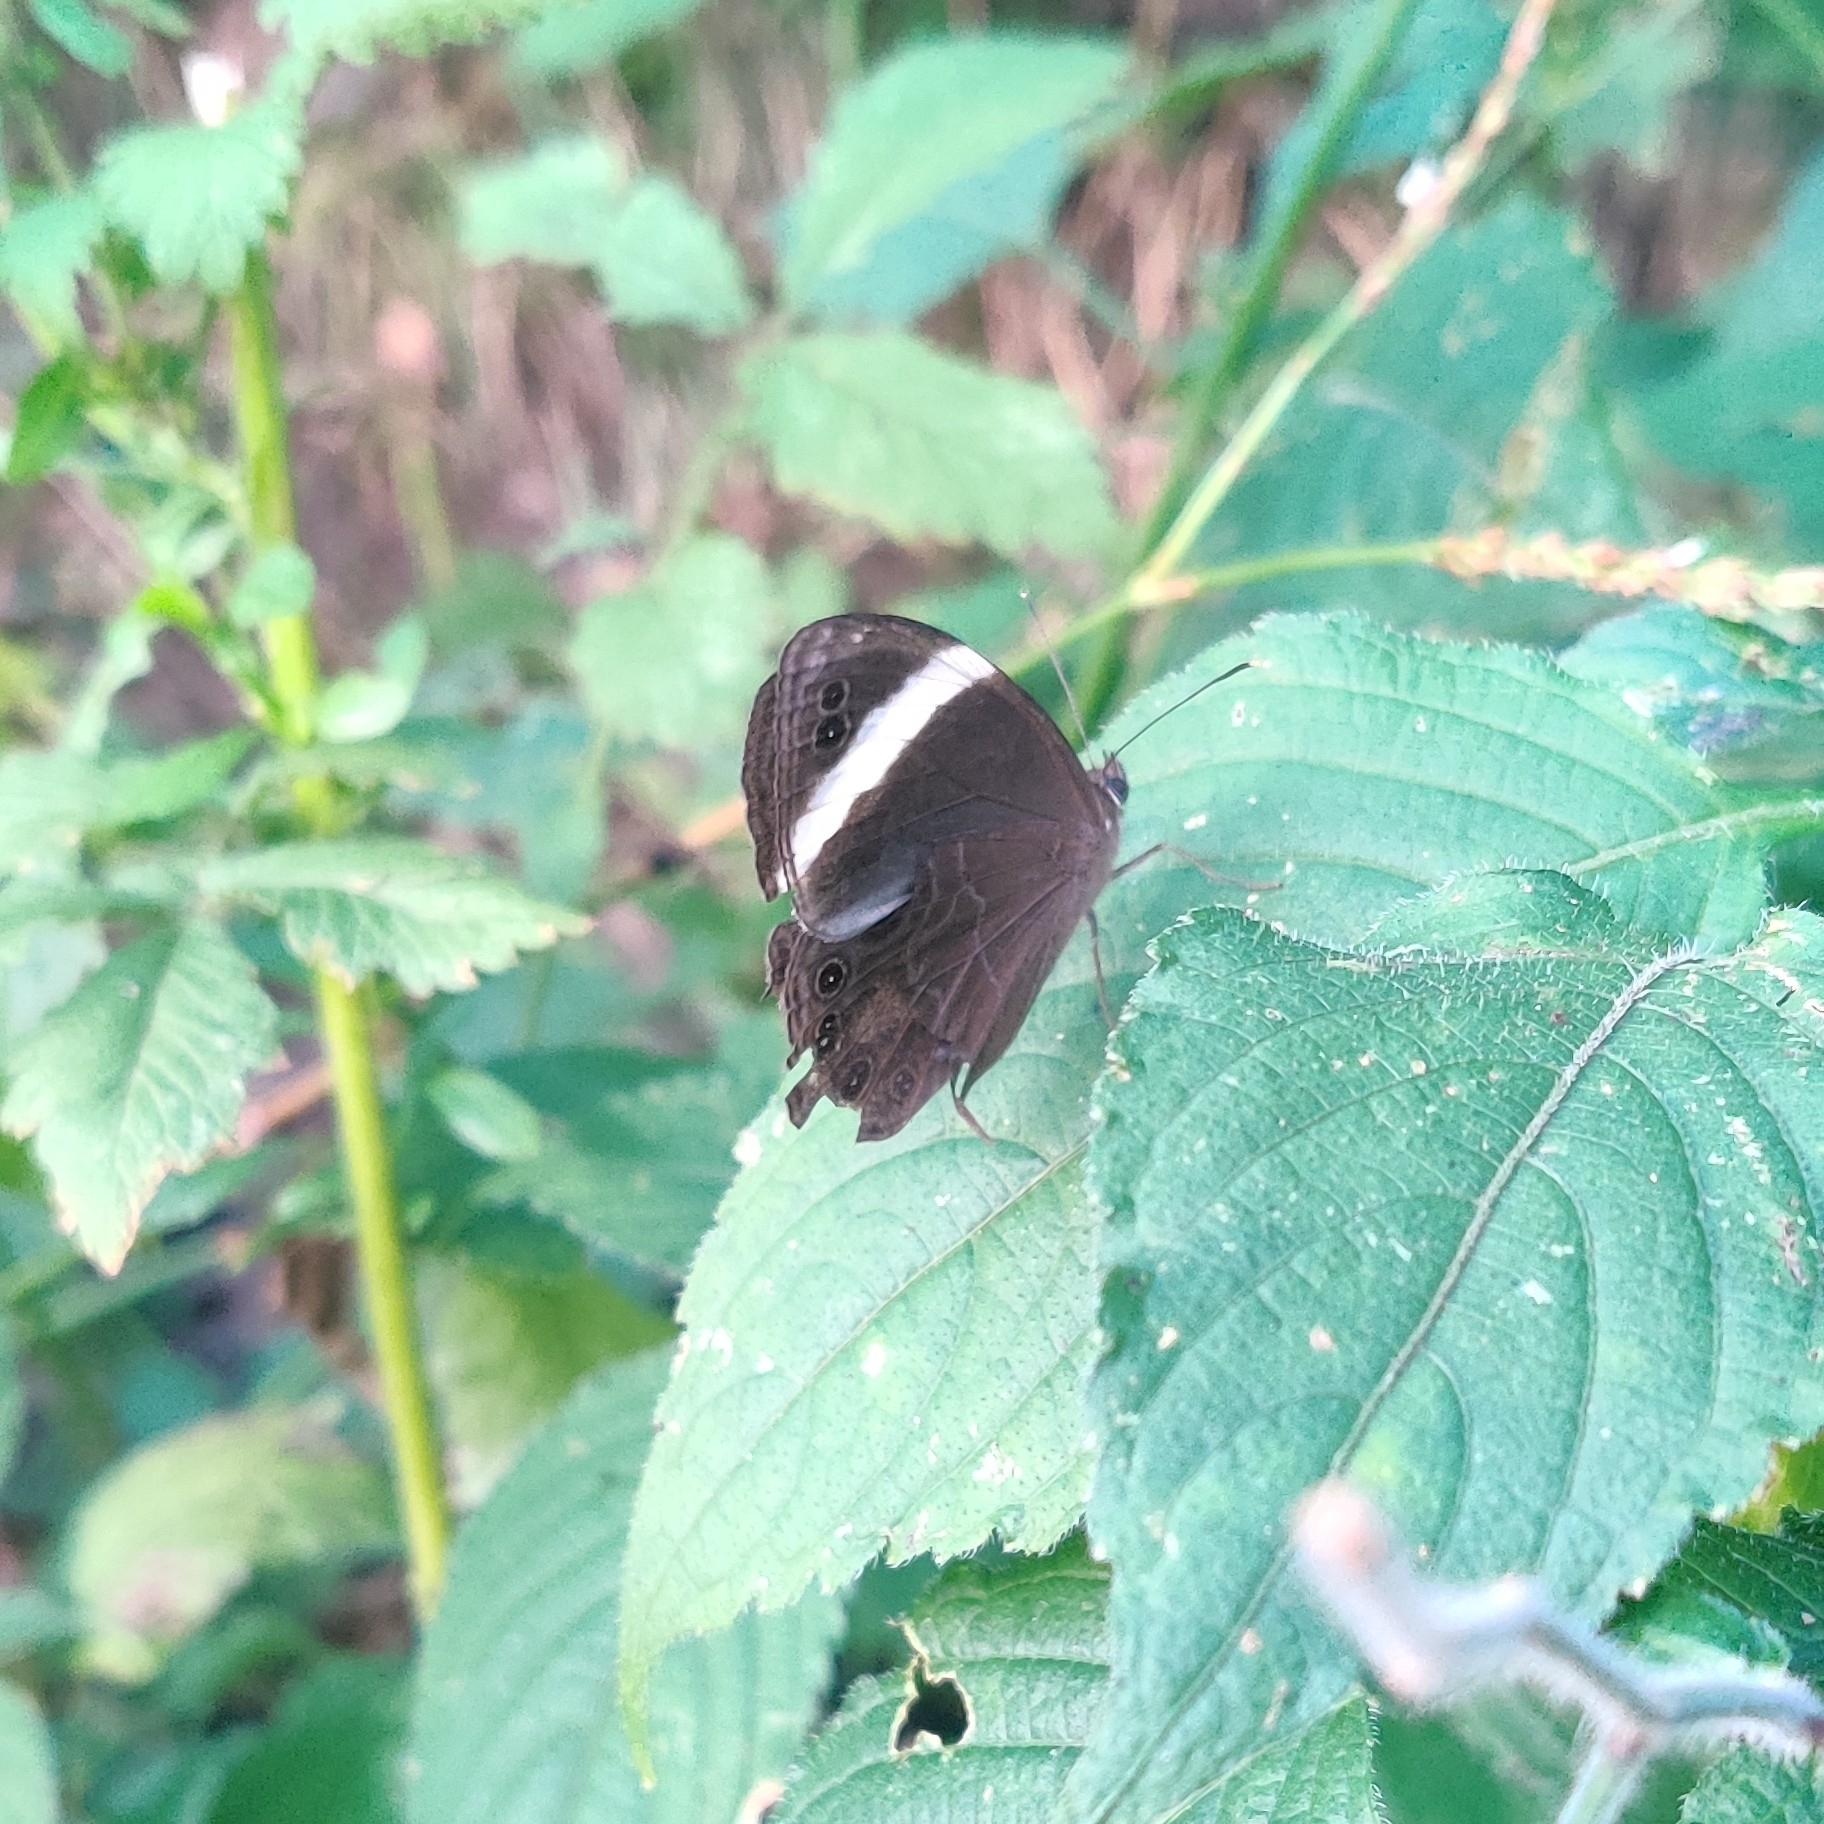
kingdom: Animalia
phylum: Arthropoda
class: Insecta
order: Lepidoptera
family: Nymphalidae
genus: Lethe
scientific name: Lethe verma
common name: Straight-banded treebrown
